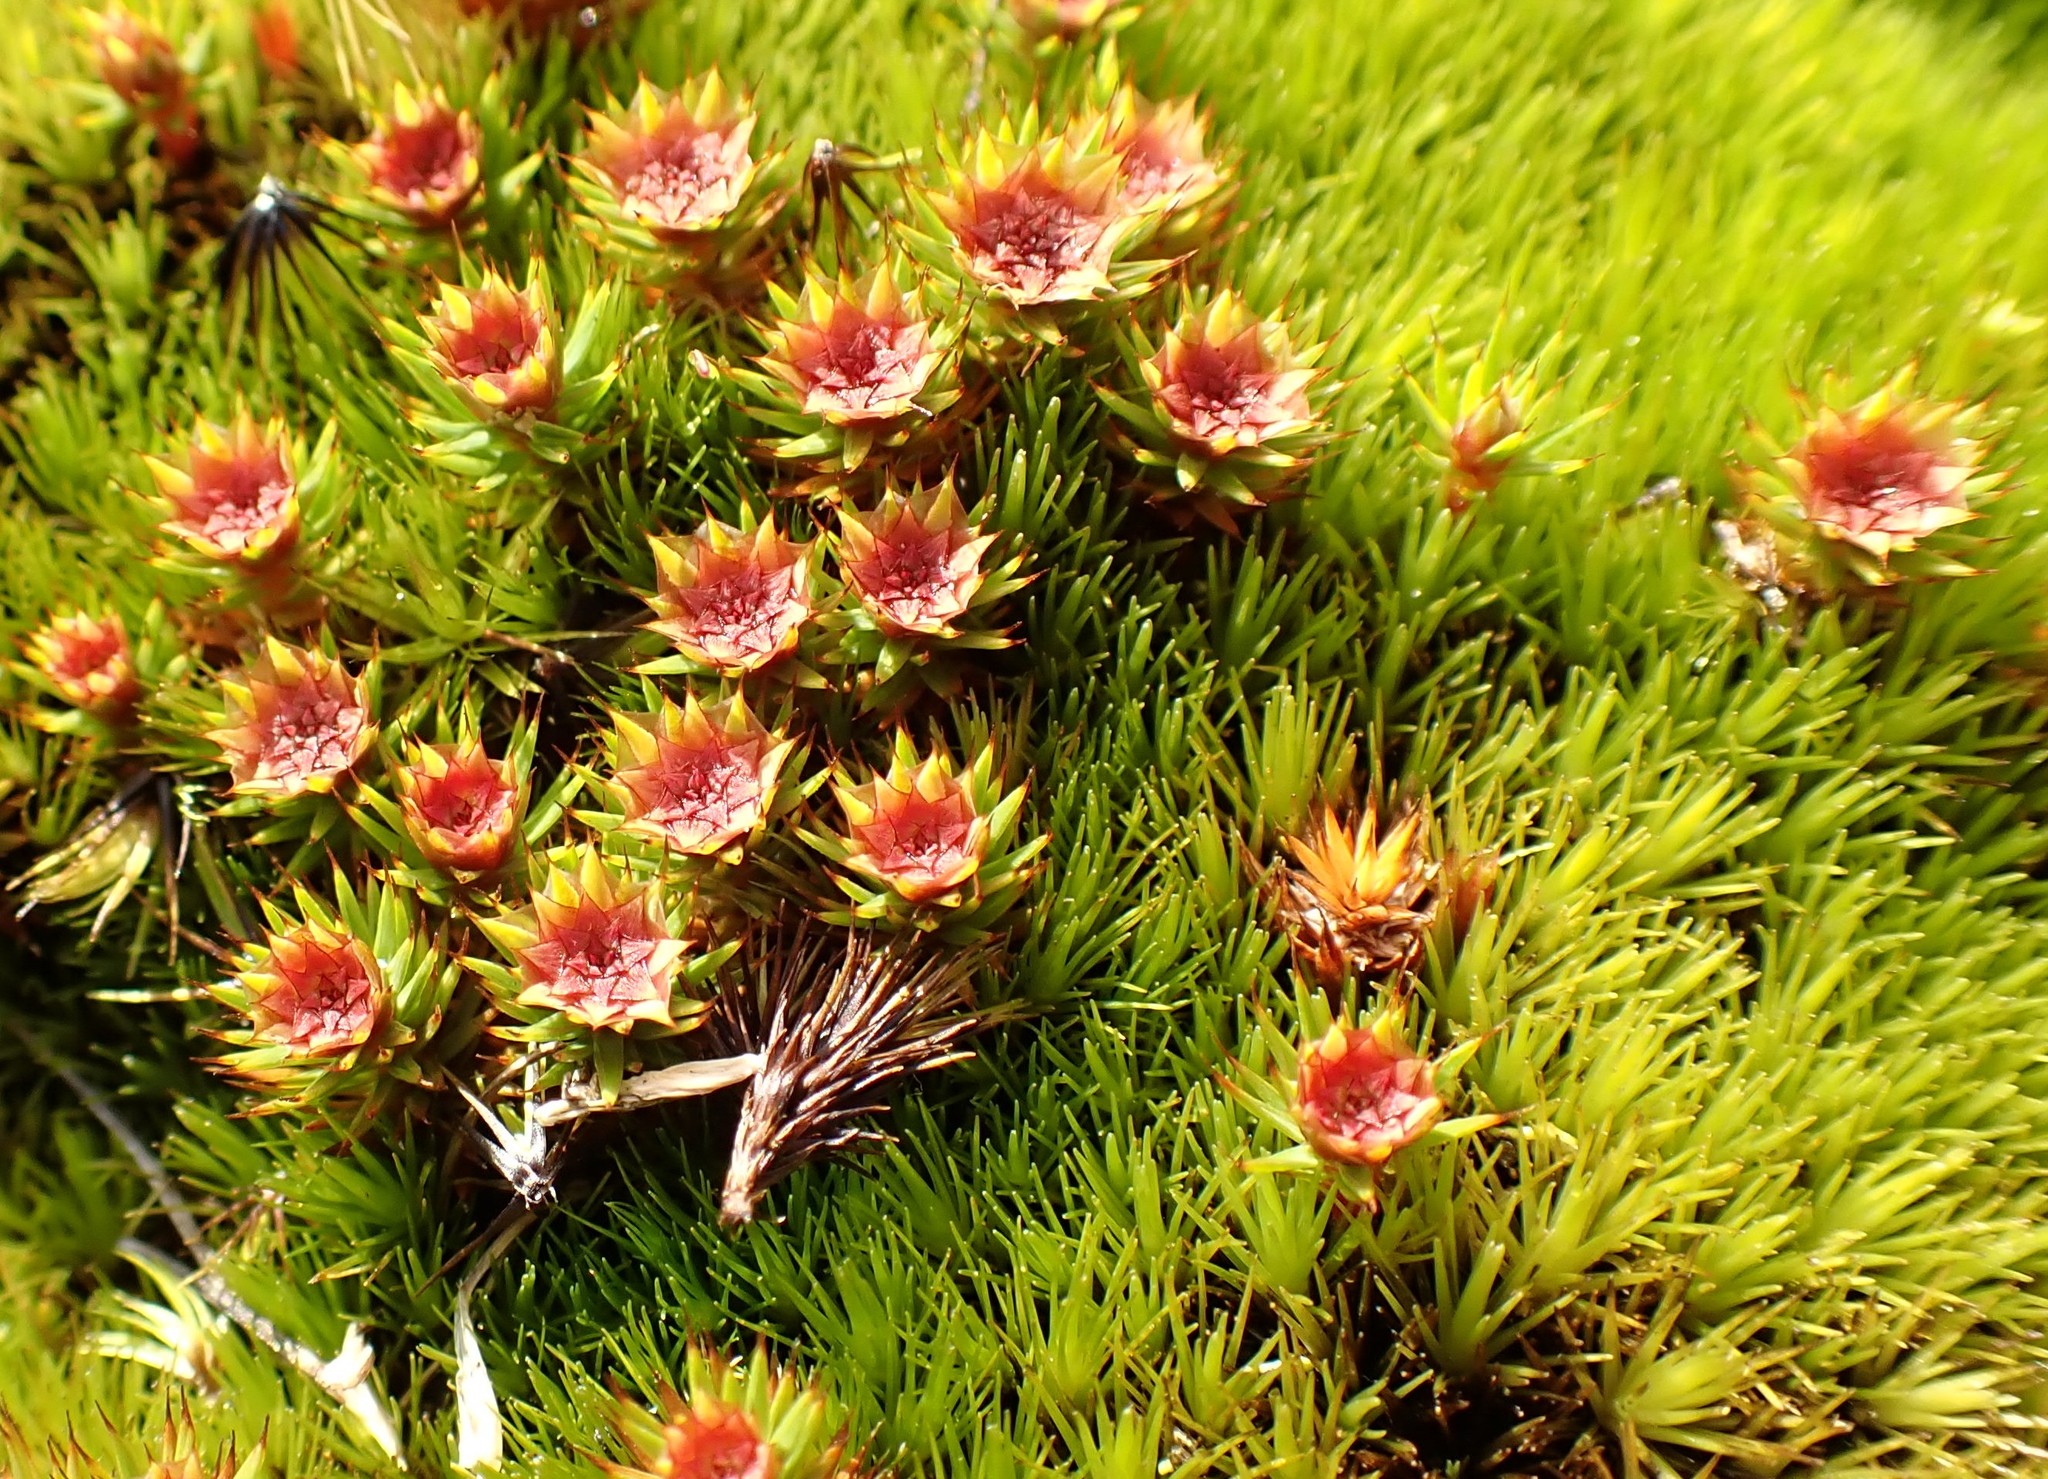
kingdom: Plantae
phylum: Bryophyta
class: Polytrichopsida
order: Polytrichales
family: Polytrichaceae
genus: Polytrichum
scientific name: Polytrichum juniperinum
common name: Juniper haircap moss
